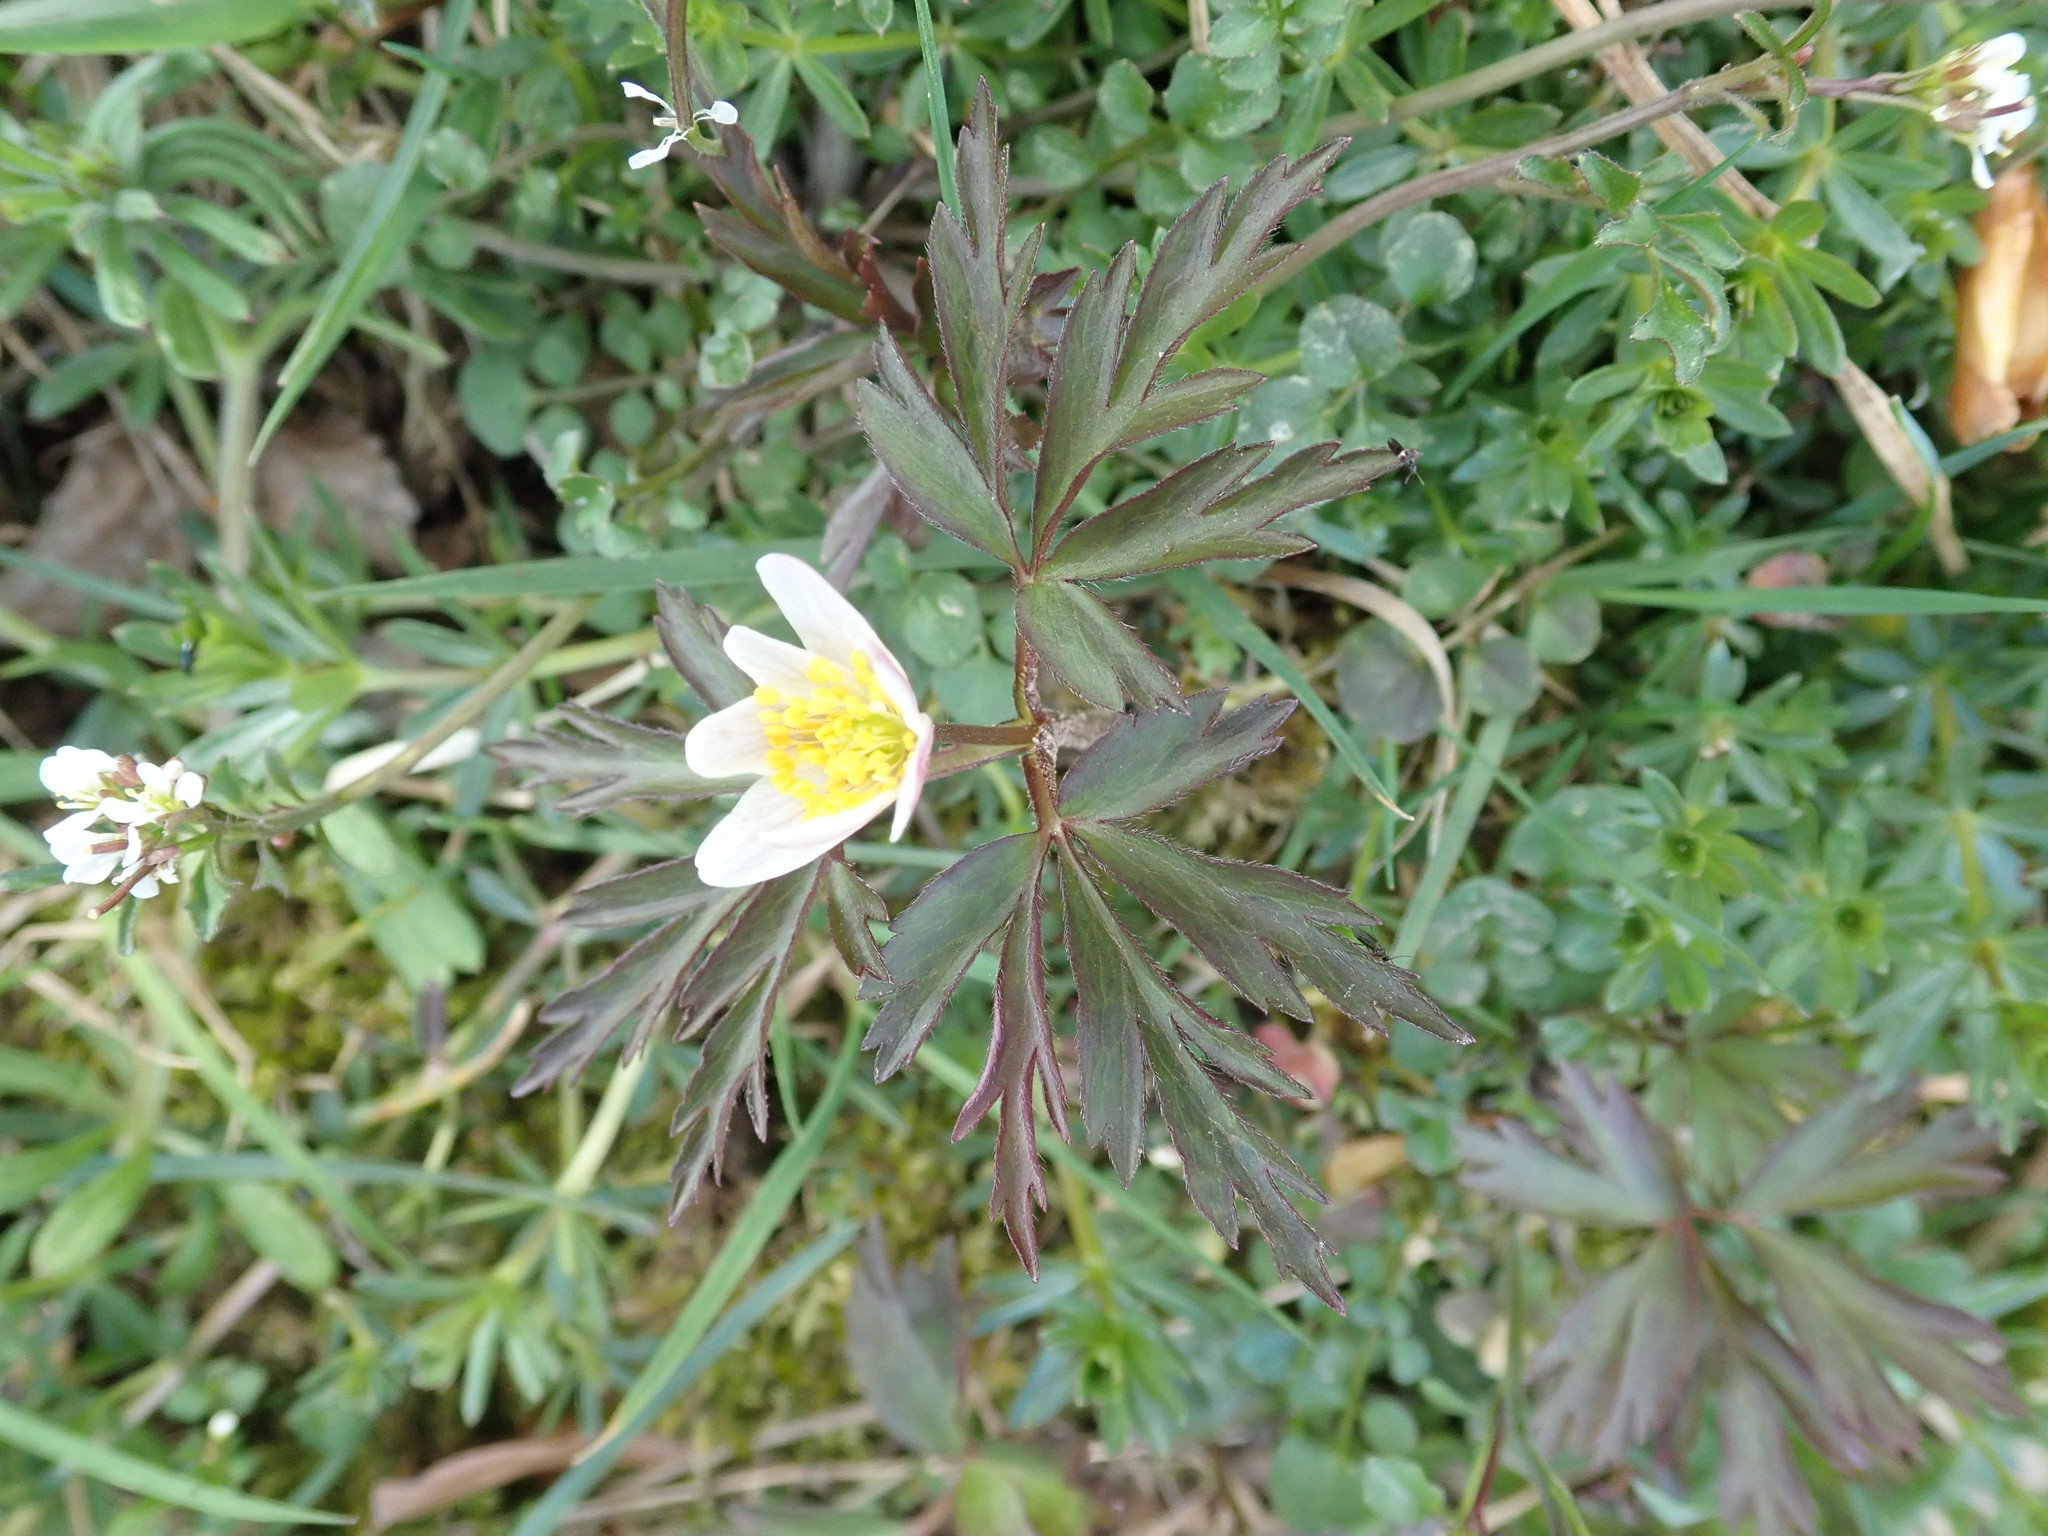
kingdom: Plantae
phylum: Tracheophyta
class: Magnoliopsida
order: Ranunculales
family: Ranunculaceae
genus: Anemone
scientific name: Anemone nemorosa
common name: Wood anemone
